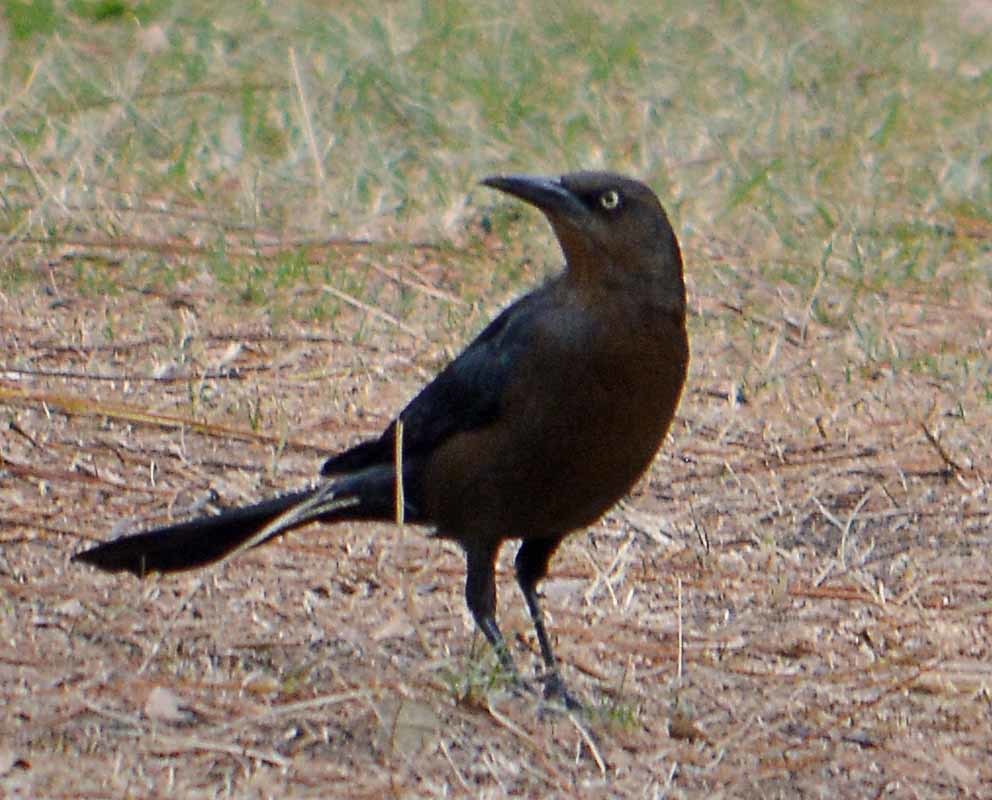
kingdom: Animalia
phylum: Chordata
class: Aves
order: Passeriformes
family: Icteridae
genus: Quiscalus
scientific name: Quiscalus mexicanus
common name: Great-tailed grackle
